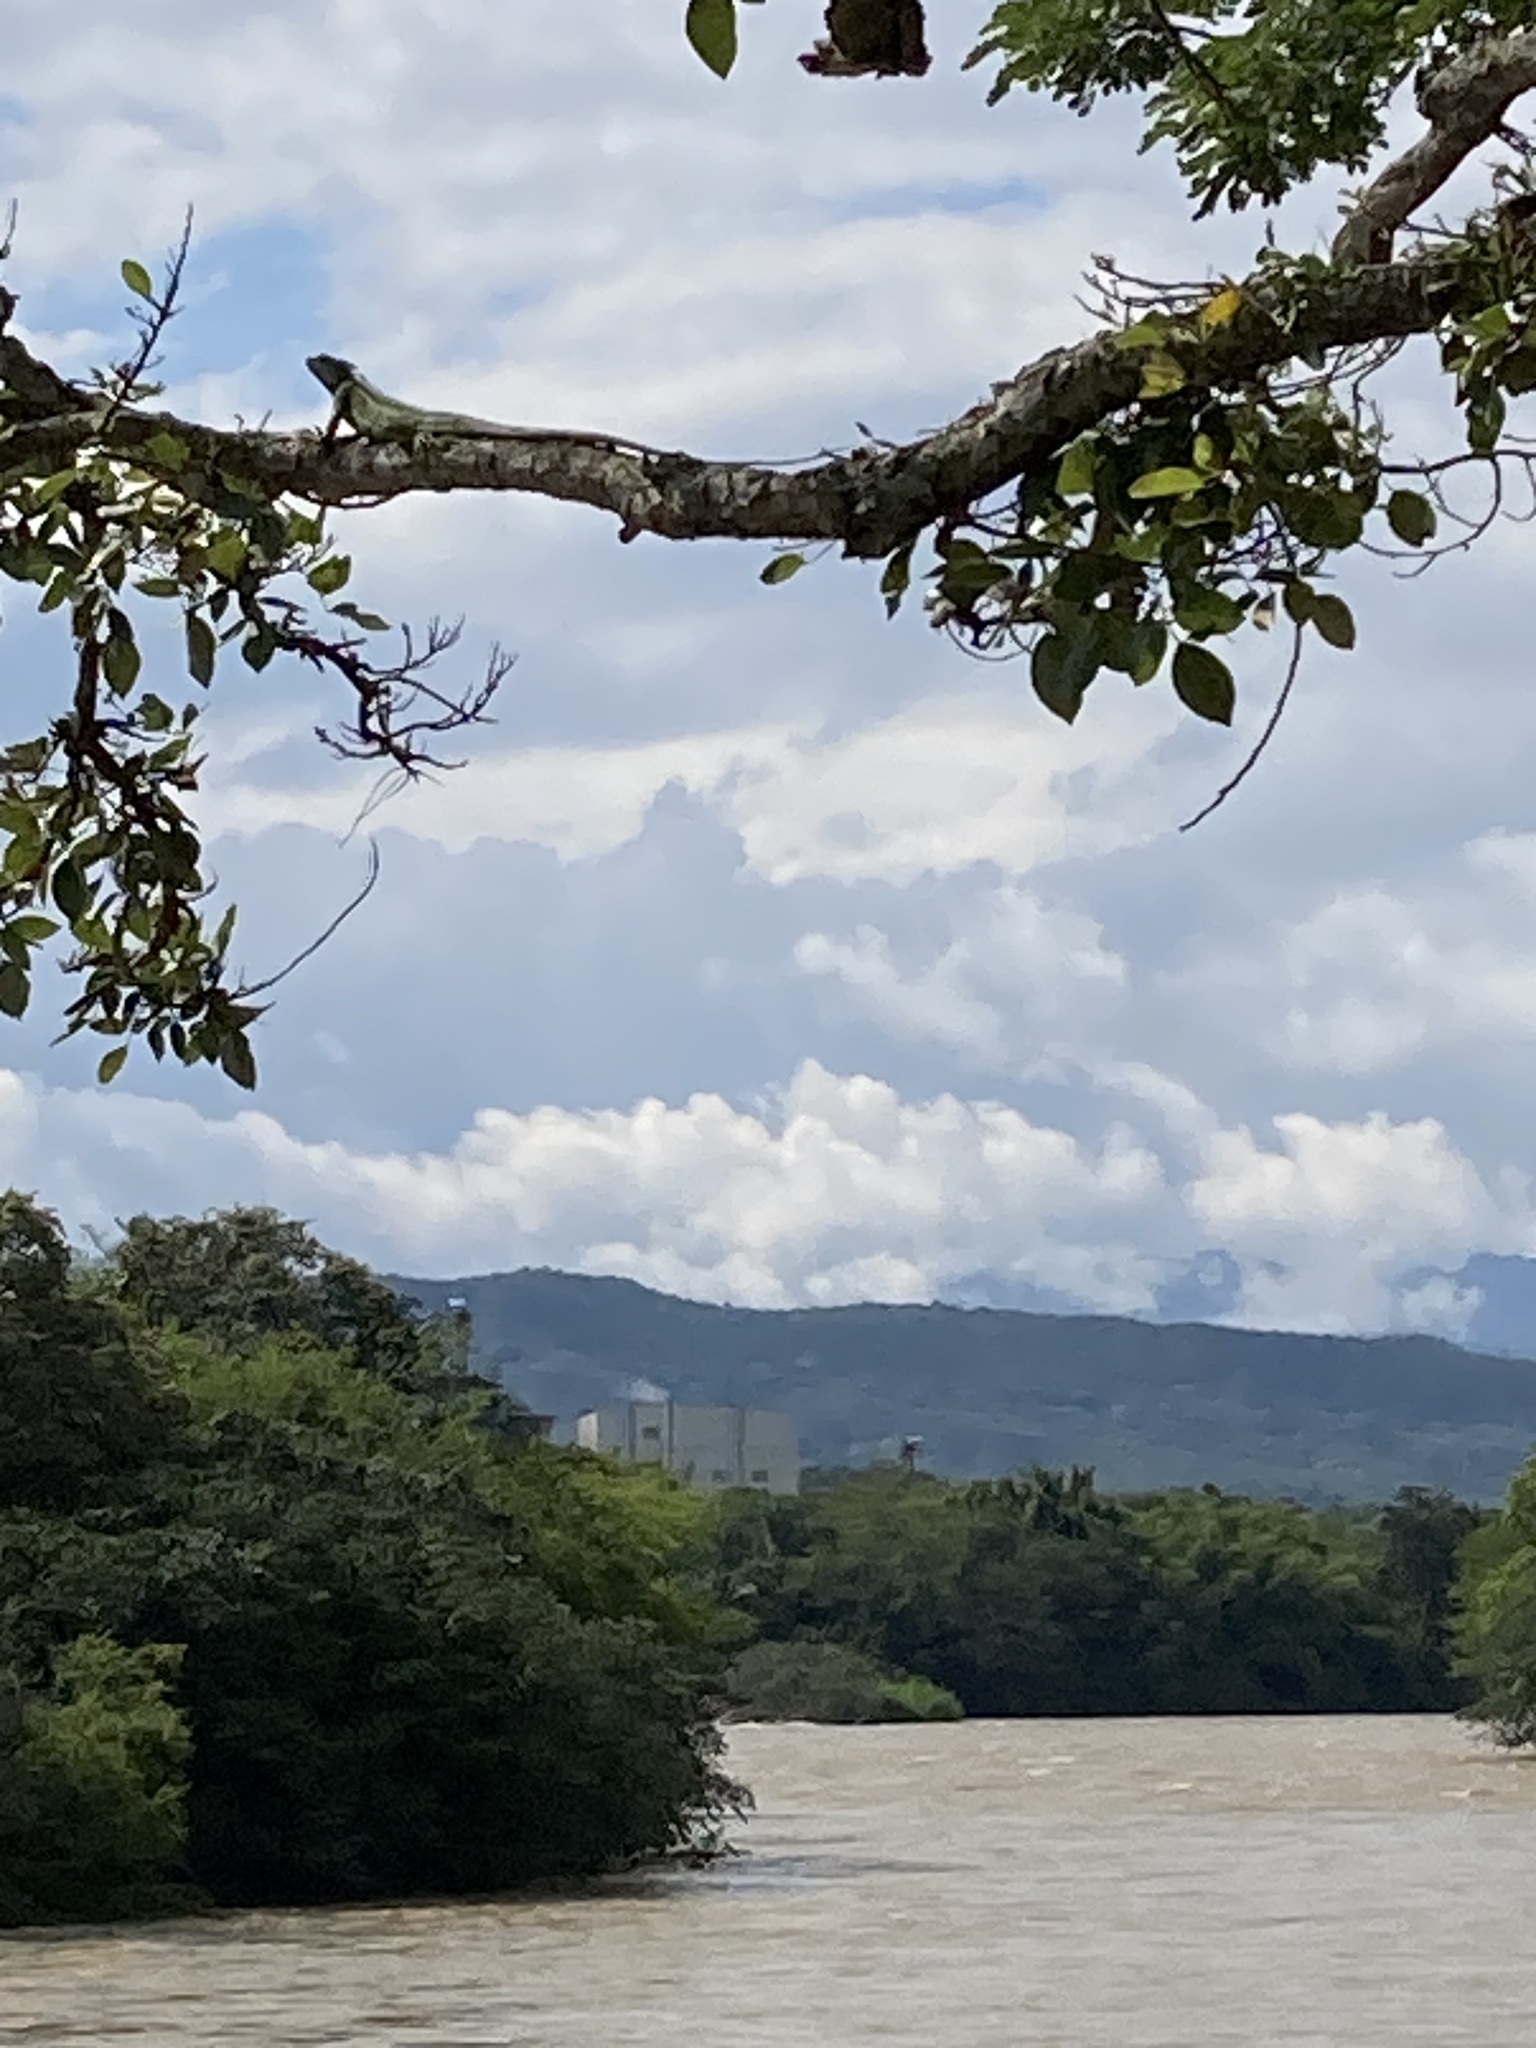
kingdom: Animalia
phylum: Chordata
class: Squamata
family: Iguanidae
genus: Iguana
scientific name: Iguana iguana
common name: Green iguana
